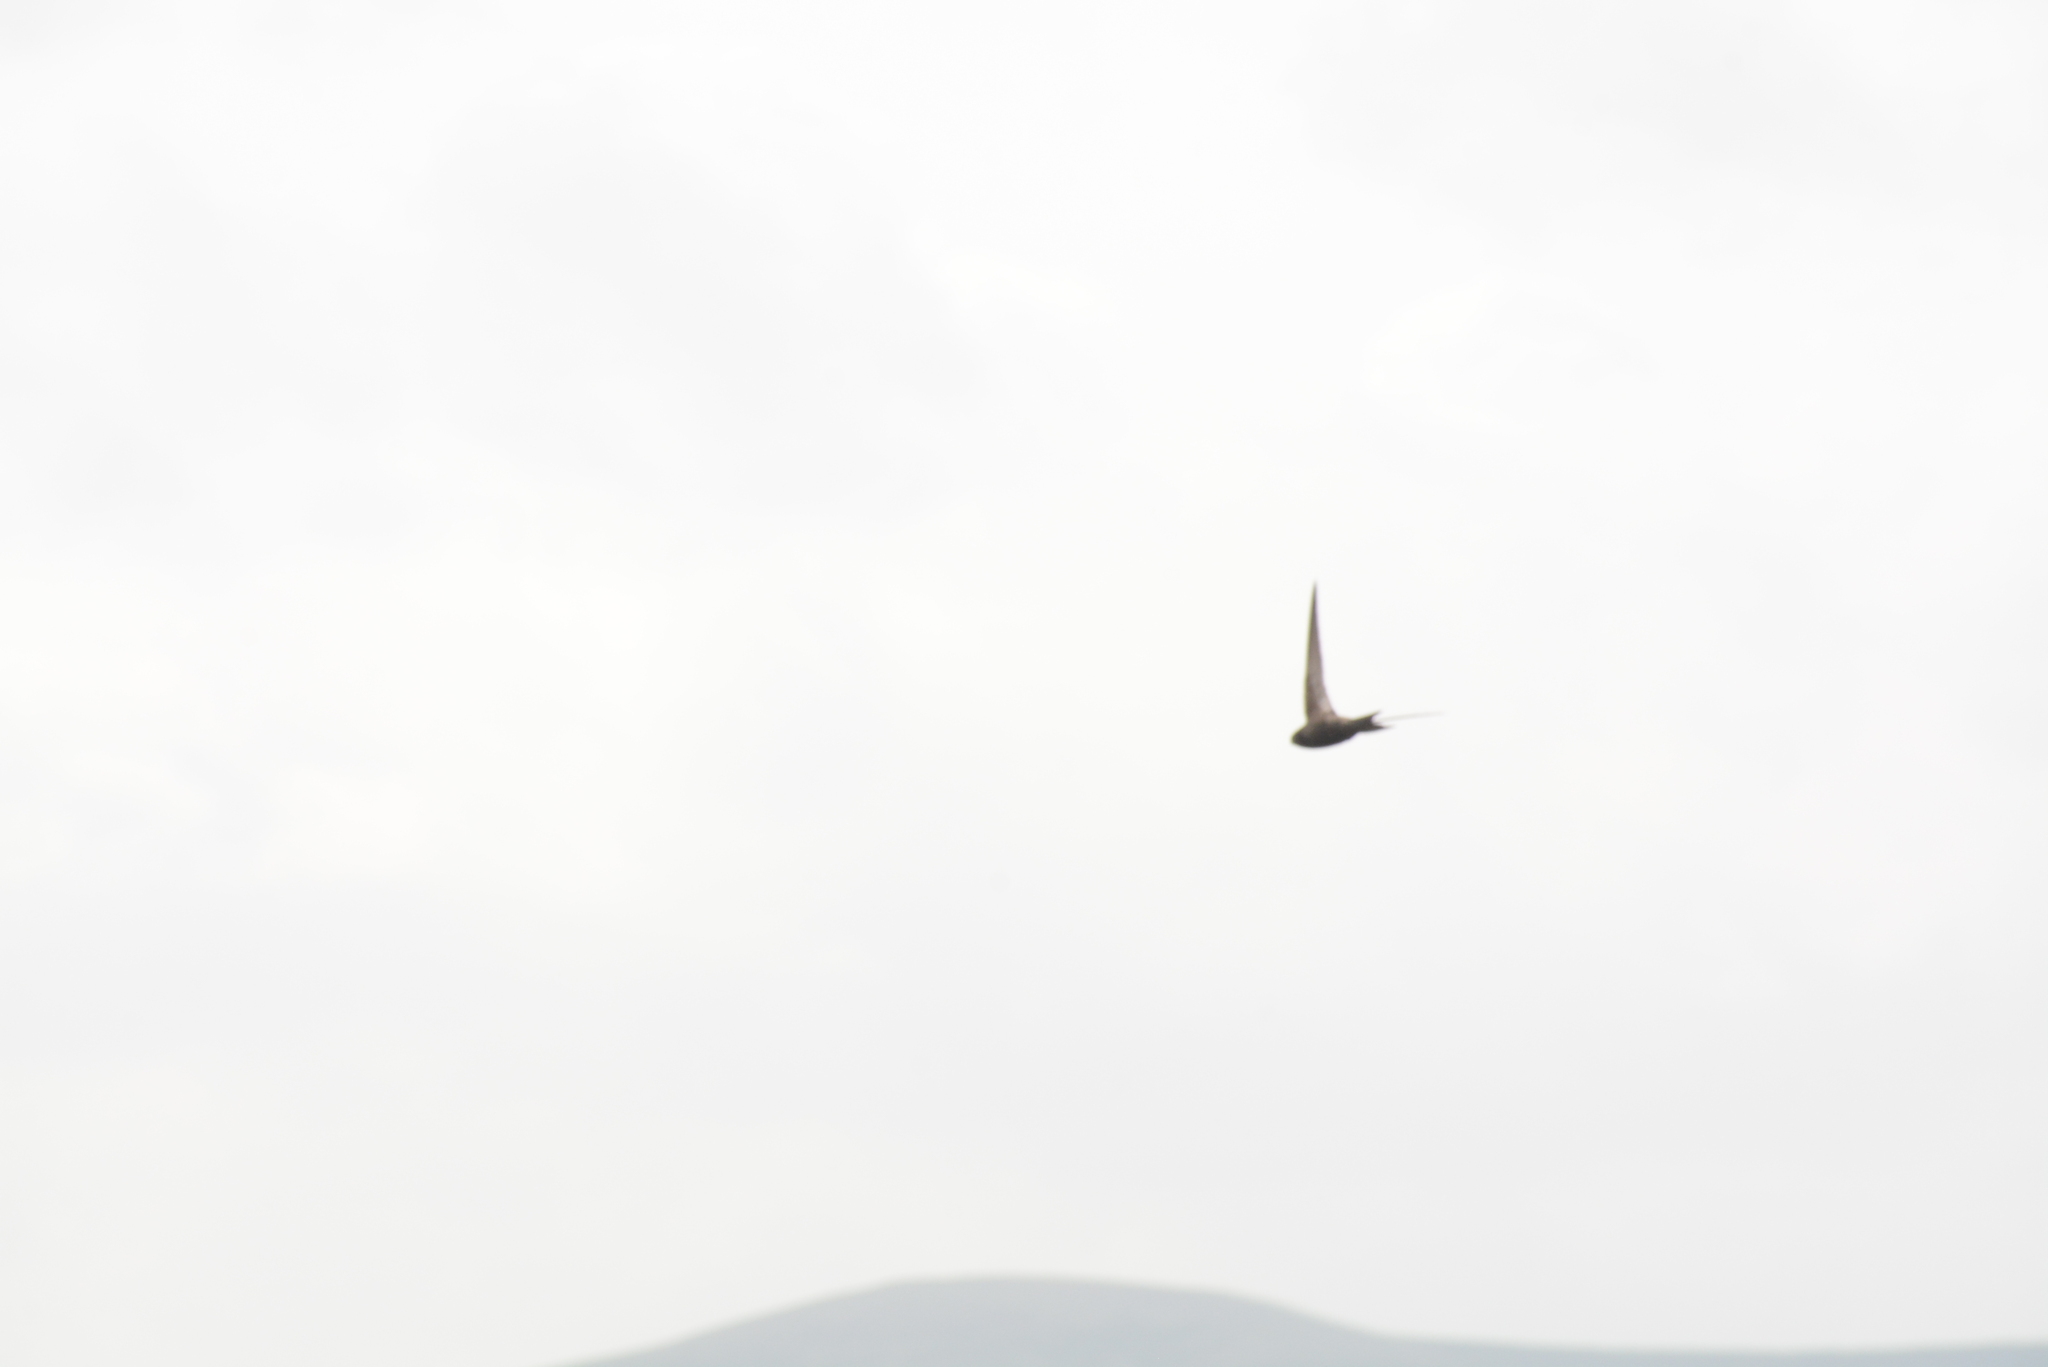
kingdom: Animalia
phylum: Chordata
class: Aves
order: Apodiformes
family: Apodidae
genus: Apus
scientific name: Apus apus
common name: Common swift
